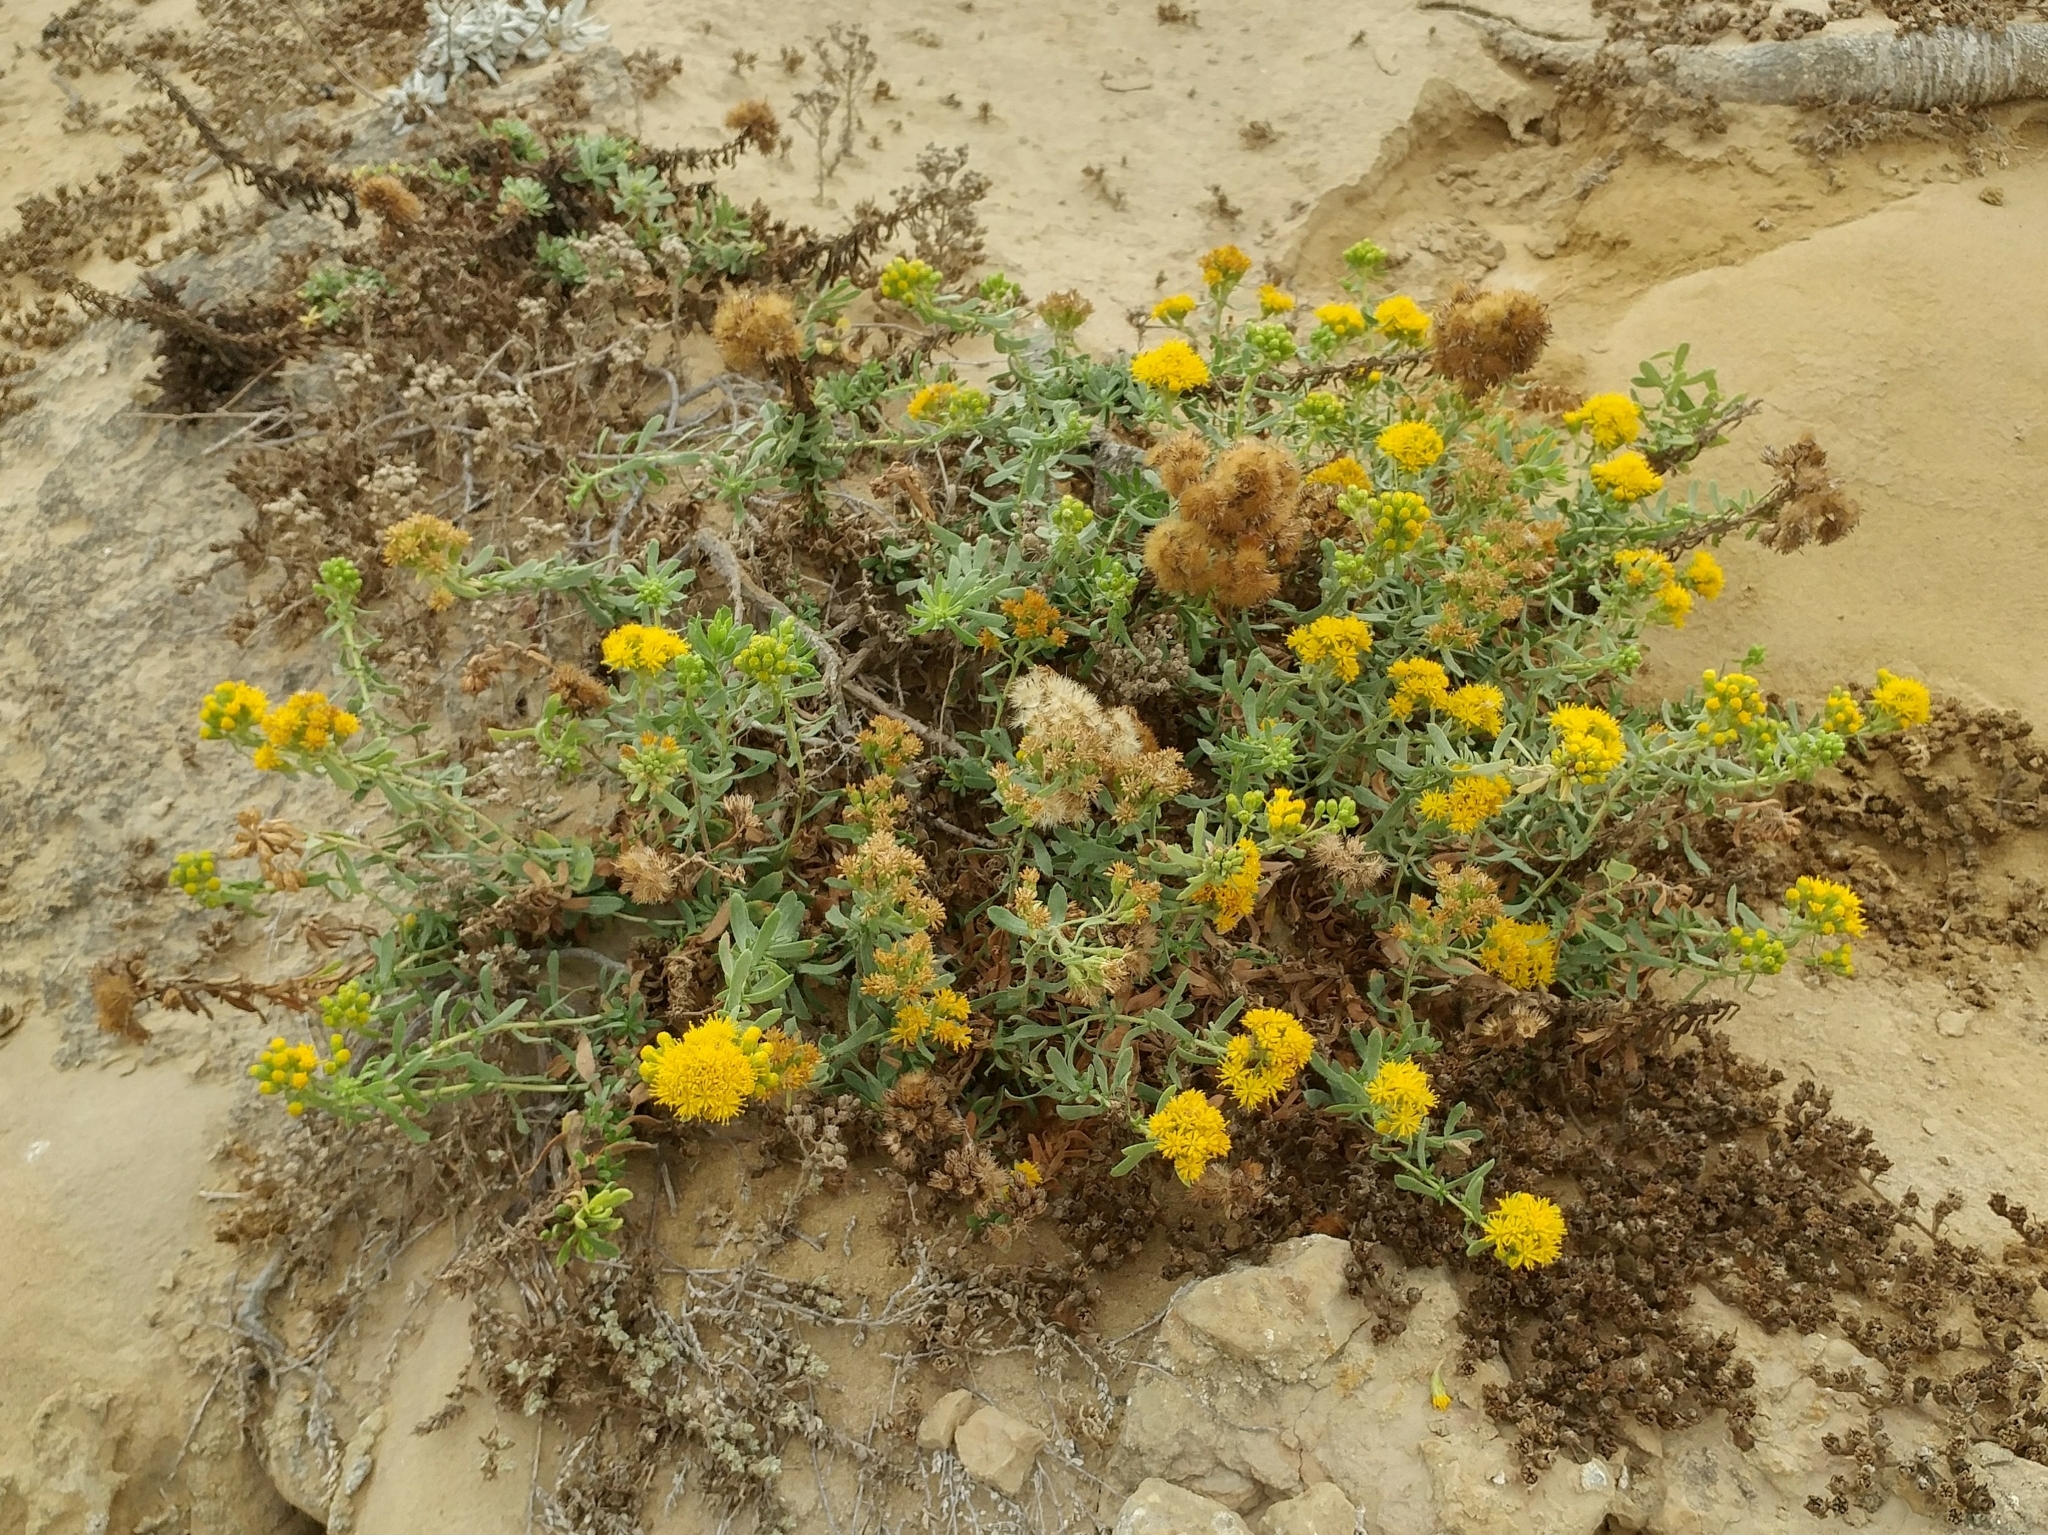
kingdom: Plantae
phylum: Tracheophyta
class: Magnoliopsida
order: Asterales
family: Asteraceae
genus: Isocoma
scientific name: Isocoma menziesii
